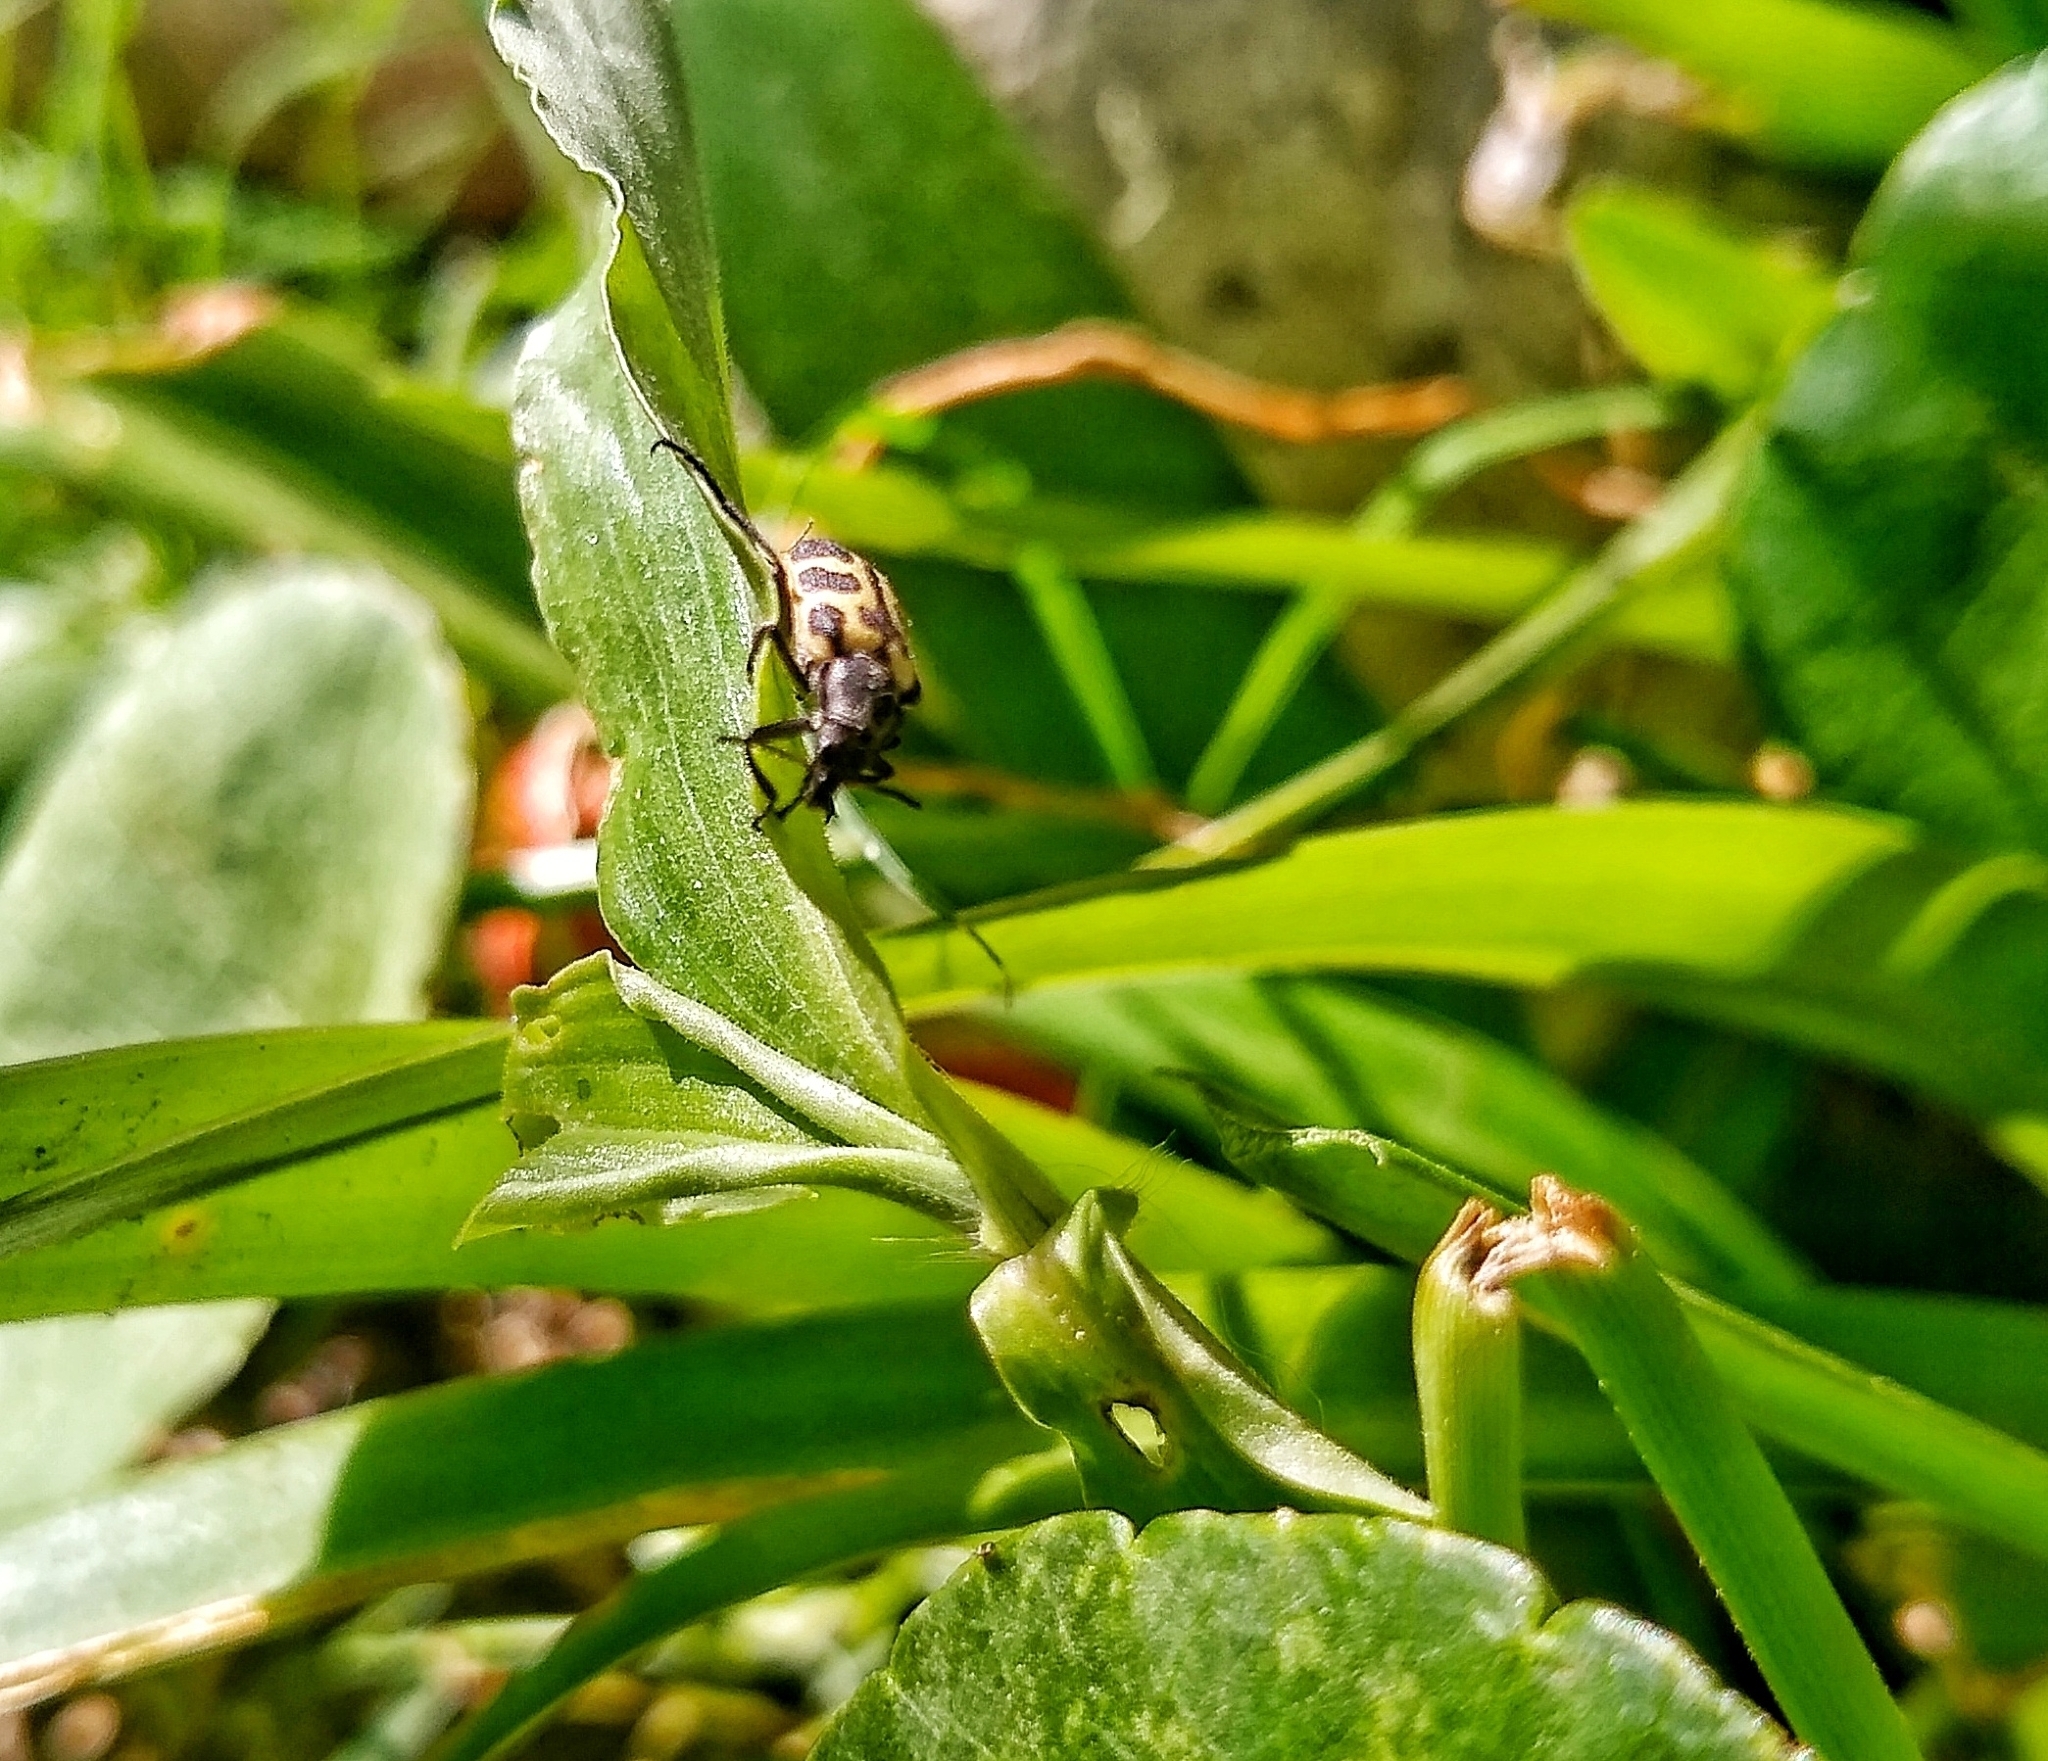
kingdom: Animalia
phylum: Arthropoda
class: Insecta
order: Coleoptera
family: Melyridae
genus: Astylus
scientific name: Astylus atromaculatus
